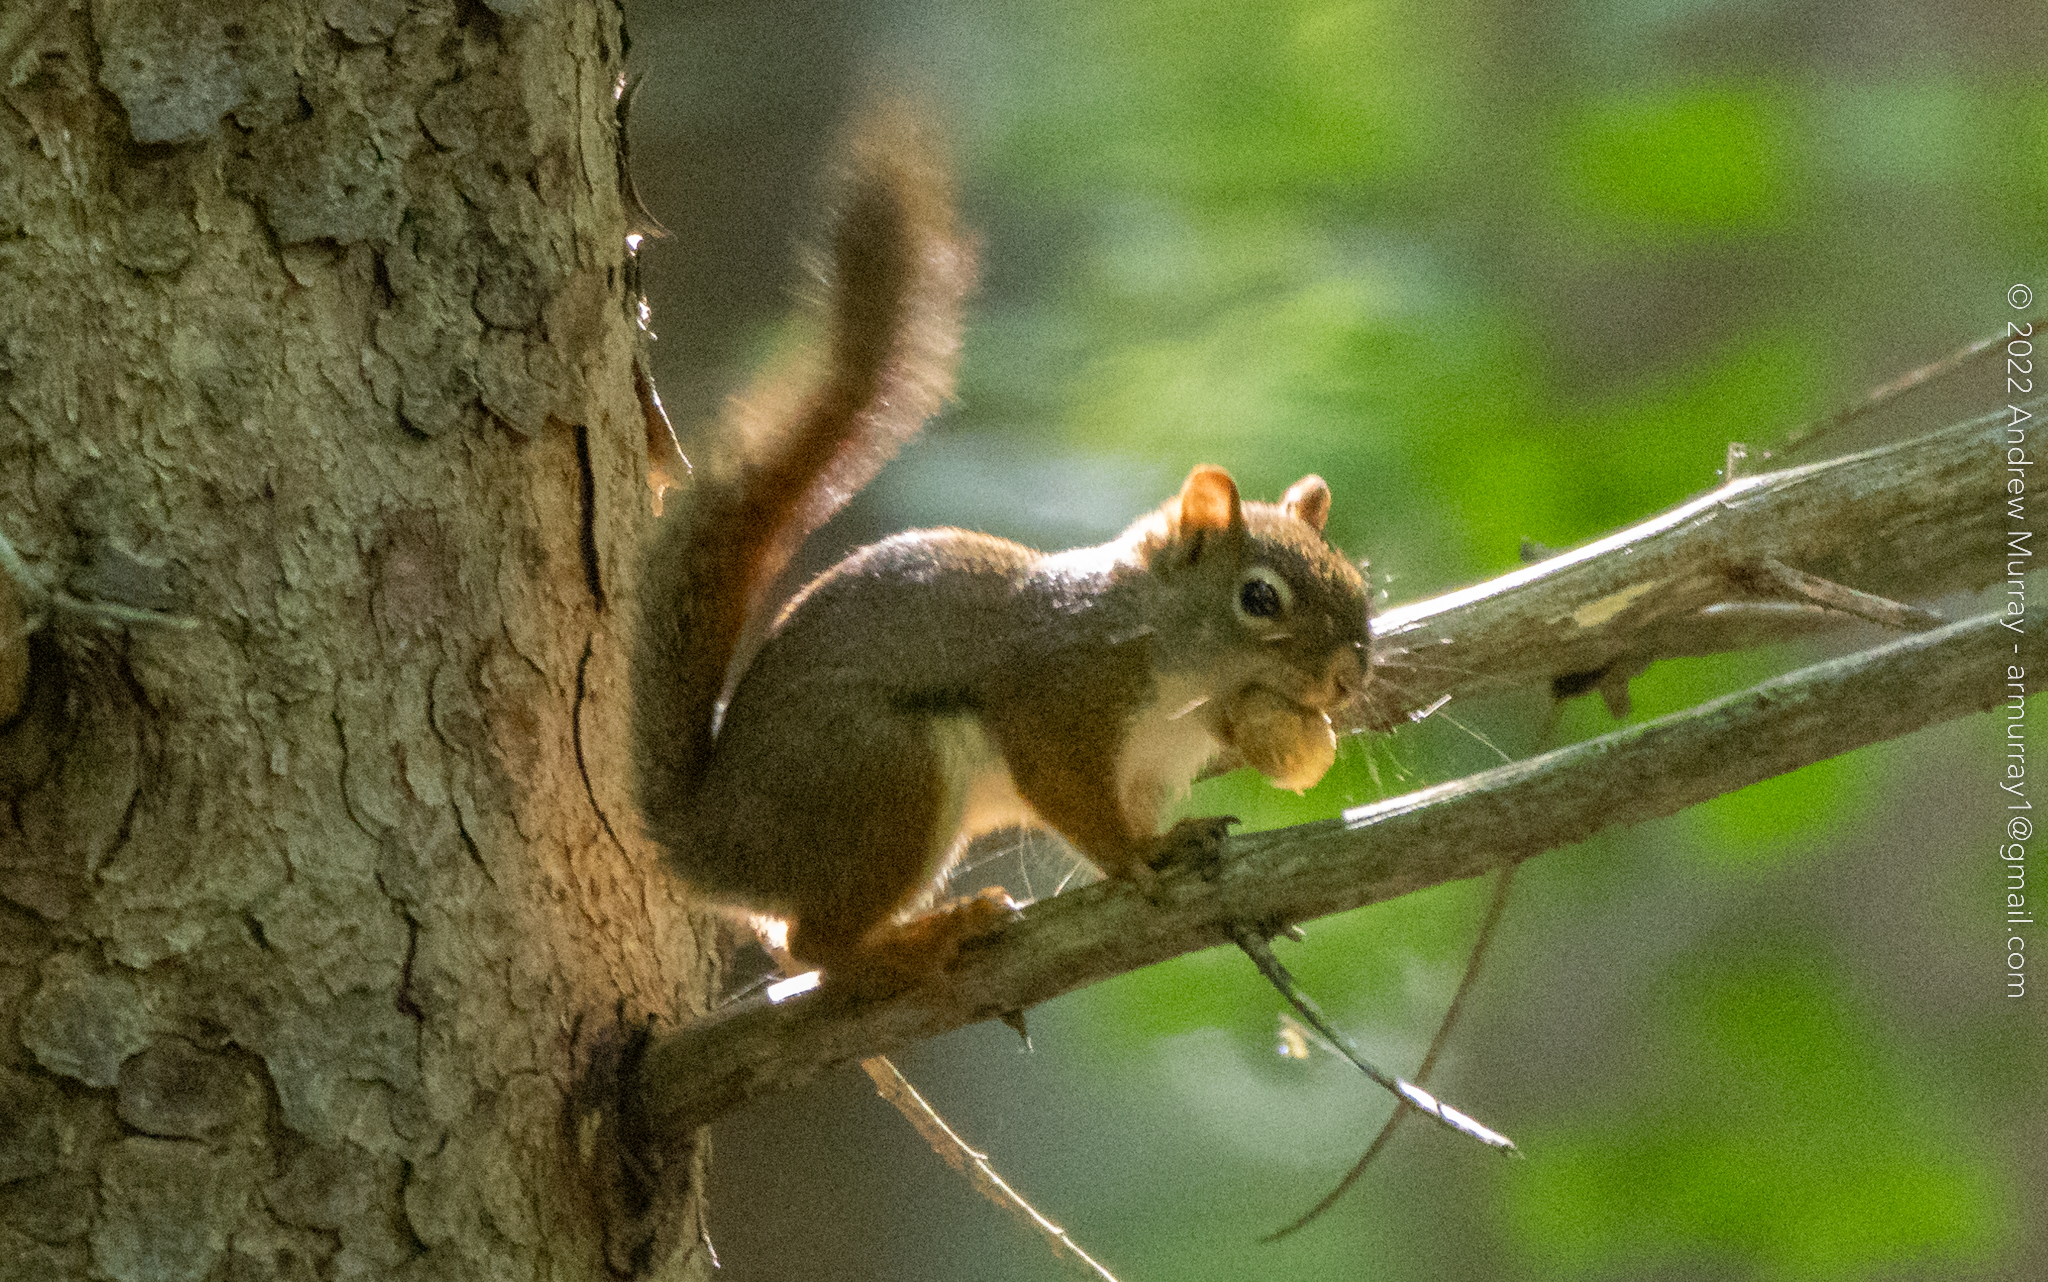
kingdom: Animalia
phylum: Chordata
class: Mammalia
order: Rodentia
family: Sciuridae
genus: Tamiasciurus
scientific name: Tamiasciurus hudsonicus
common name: Red squirrel
